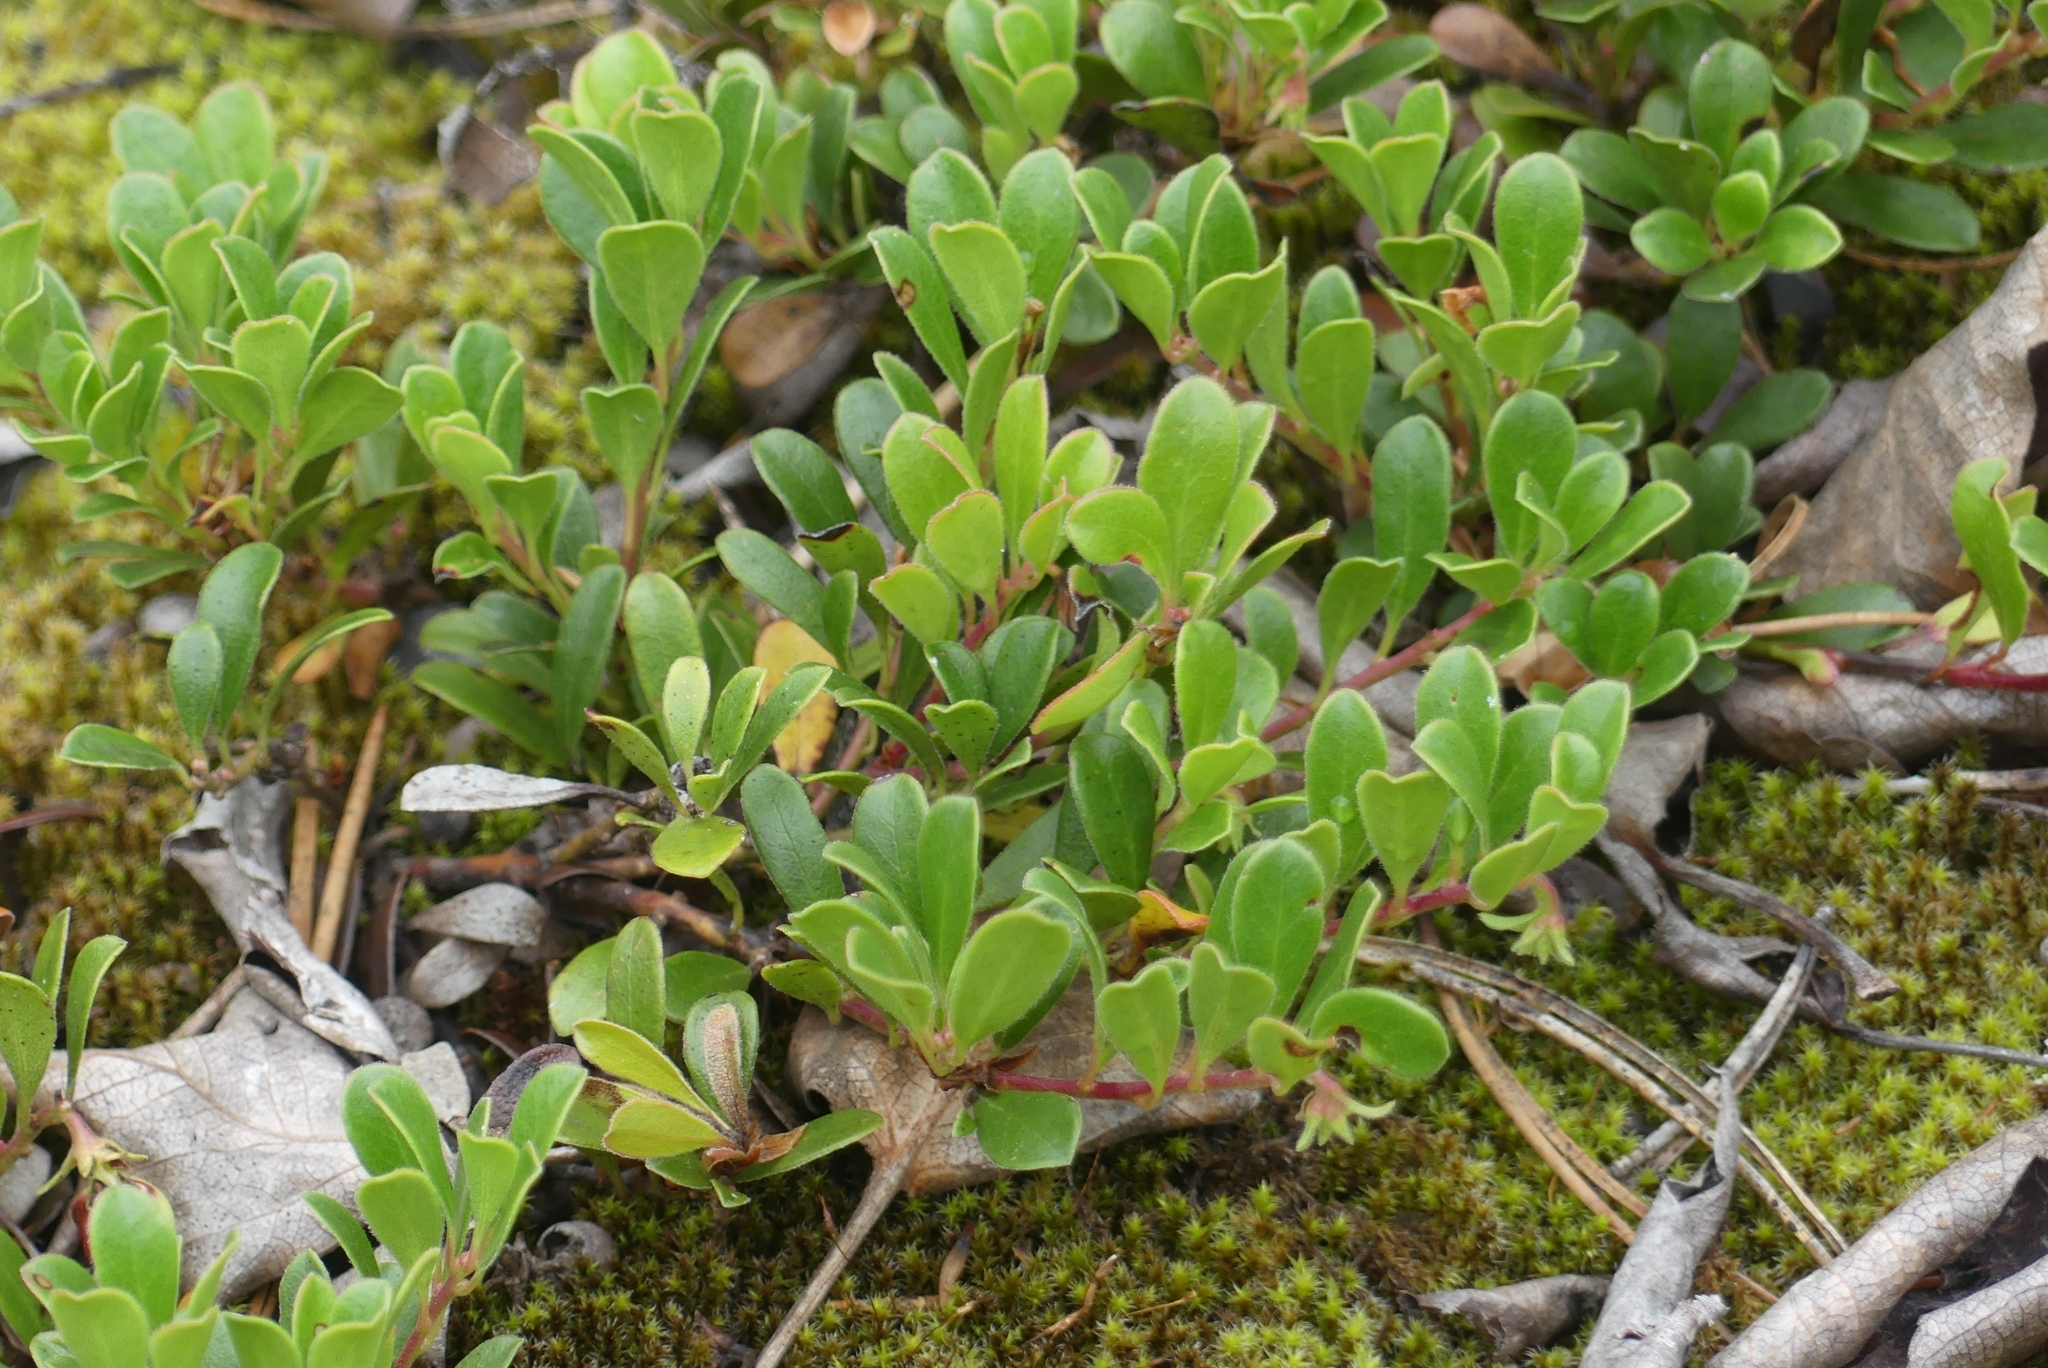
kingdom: Plantae
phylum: Tracheophyta
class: Magnoliopsida
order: Ericales
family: Ericaceae
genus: Arctostaphylos
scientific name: Arctostaphylos uva-ursi
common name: Bearberry
